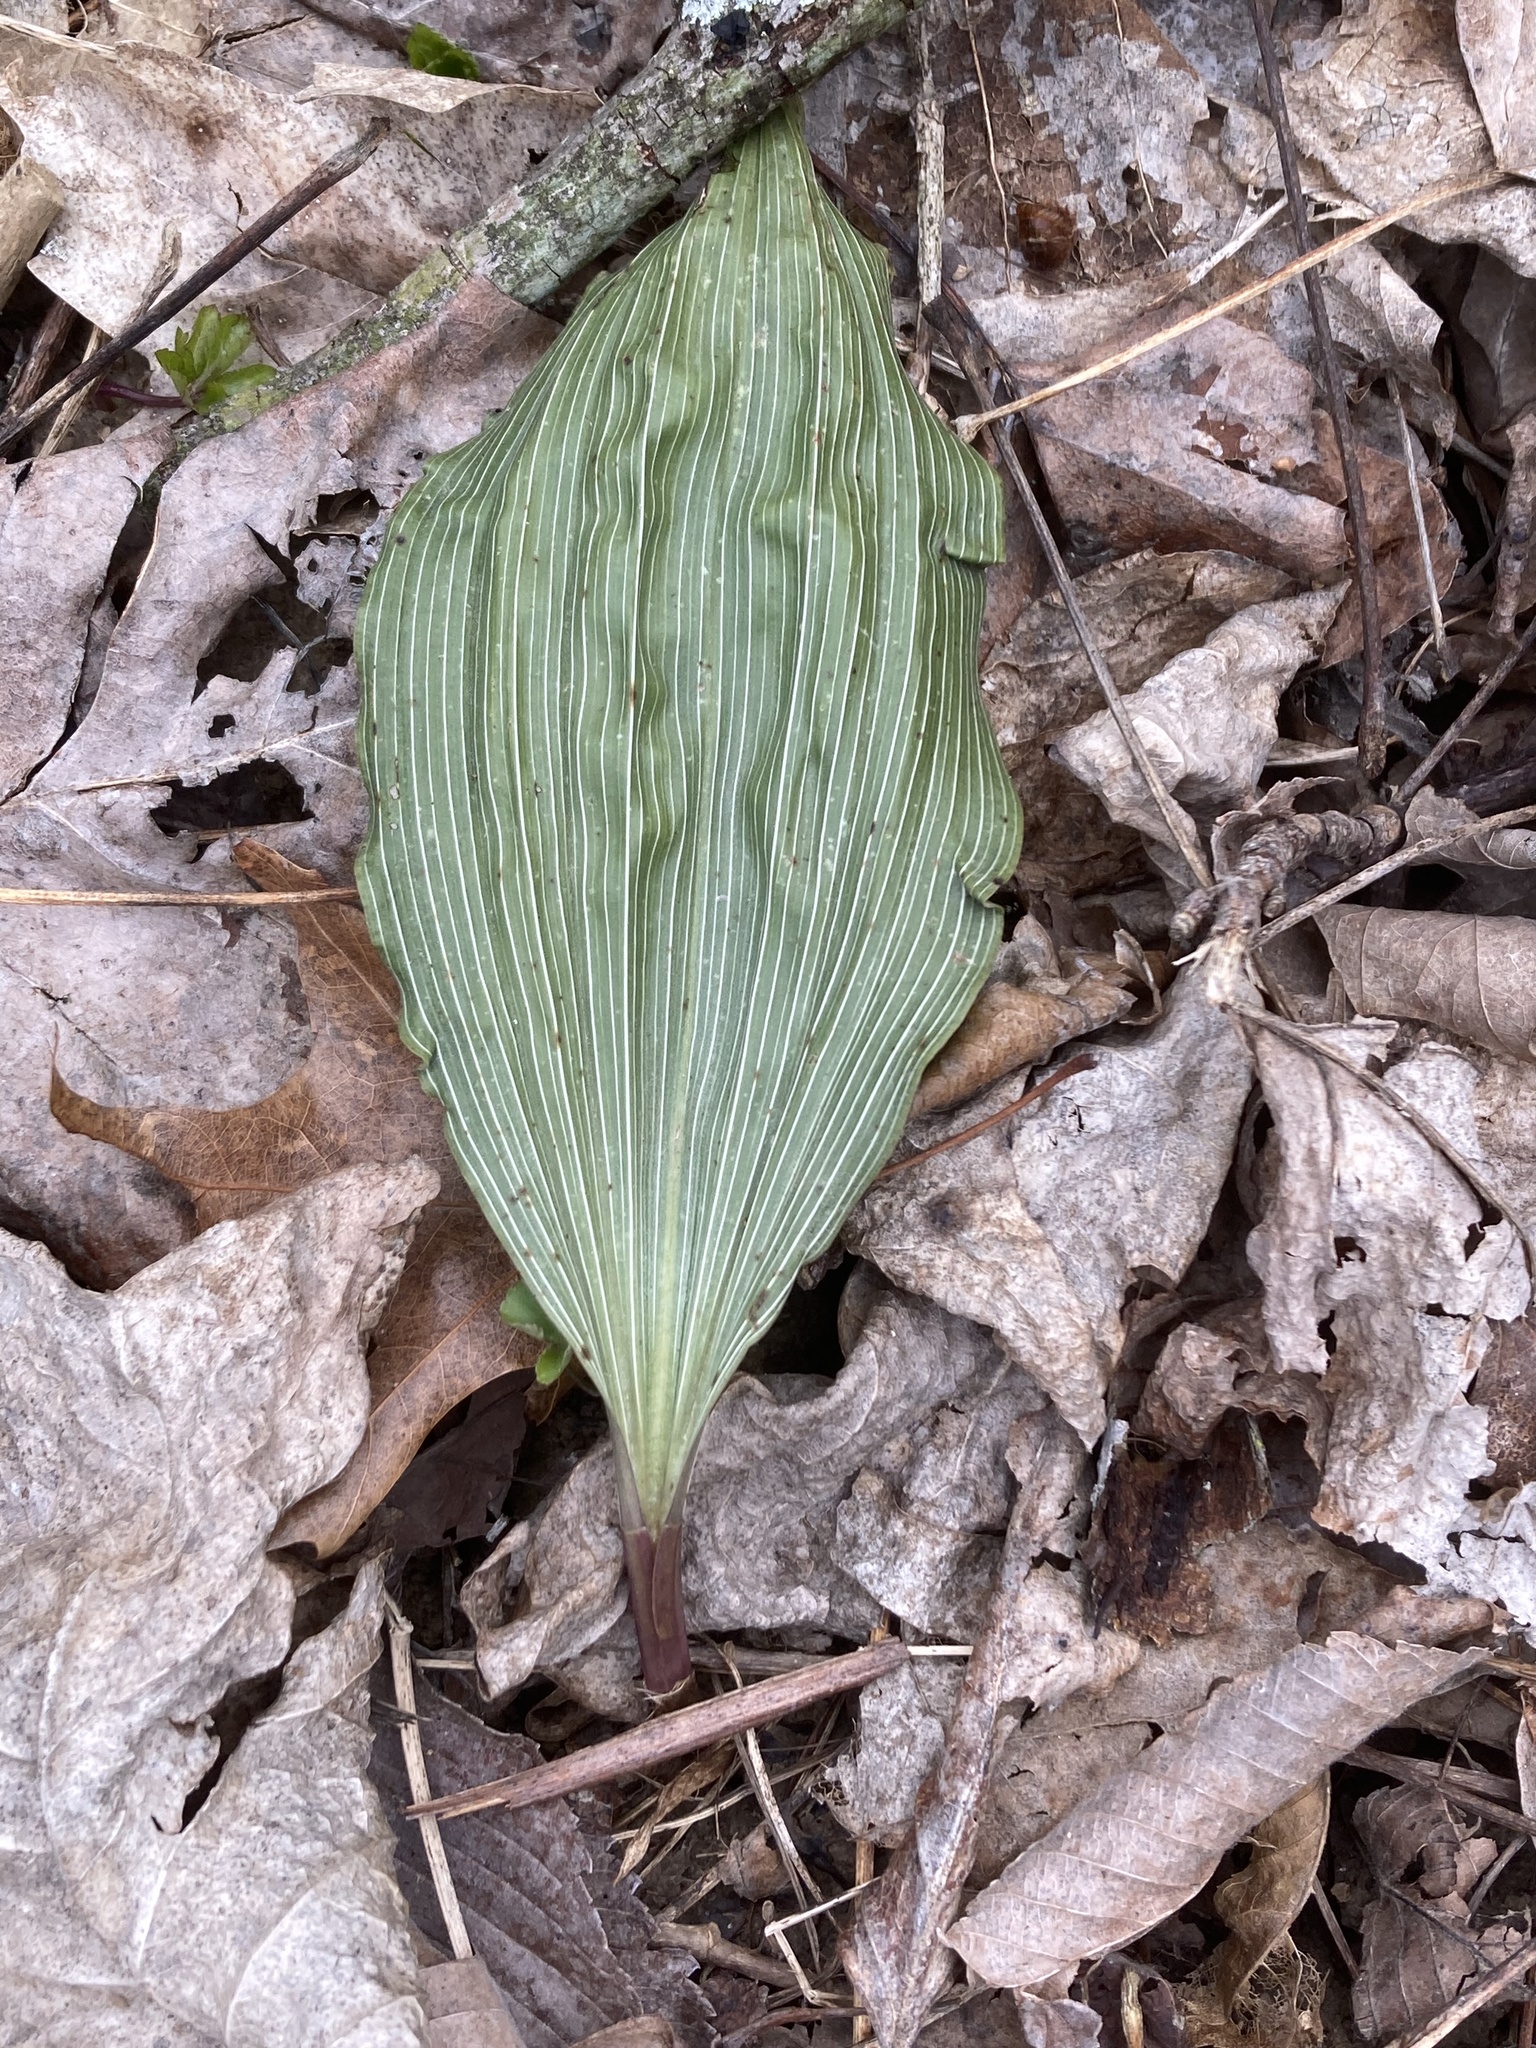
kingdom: Plantae
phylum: Tracheophyta
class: Liliopsida
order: Asparagales
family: Orchidaceae
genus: Aplectrum
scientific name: Aplectrum hyemale
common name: Adam-and-eve
